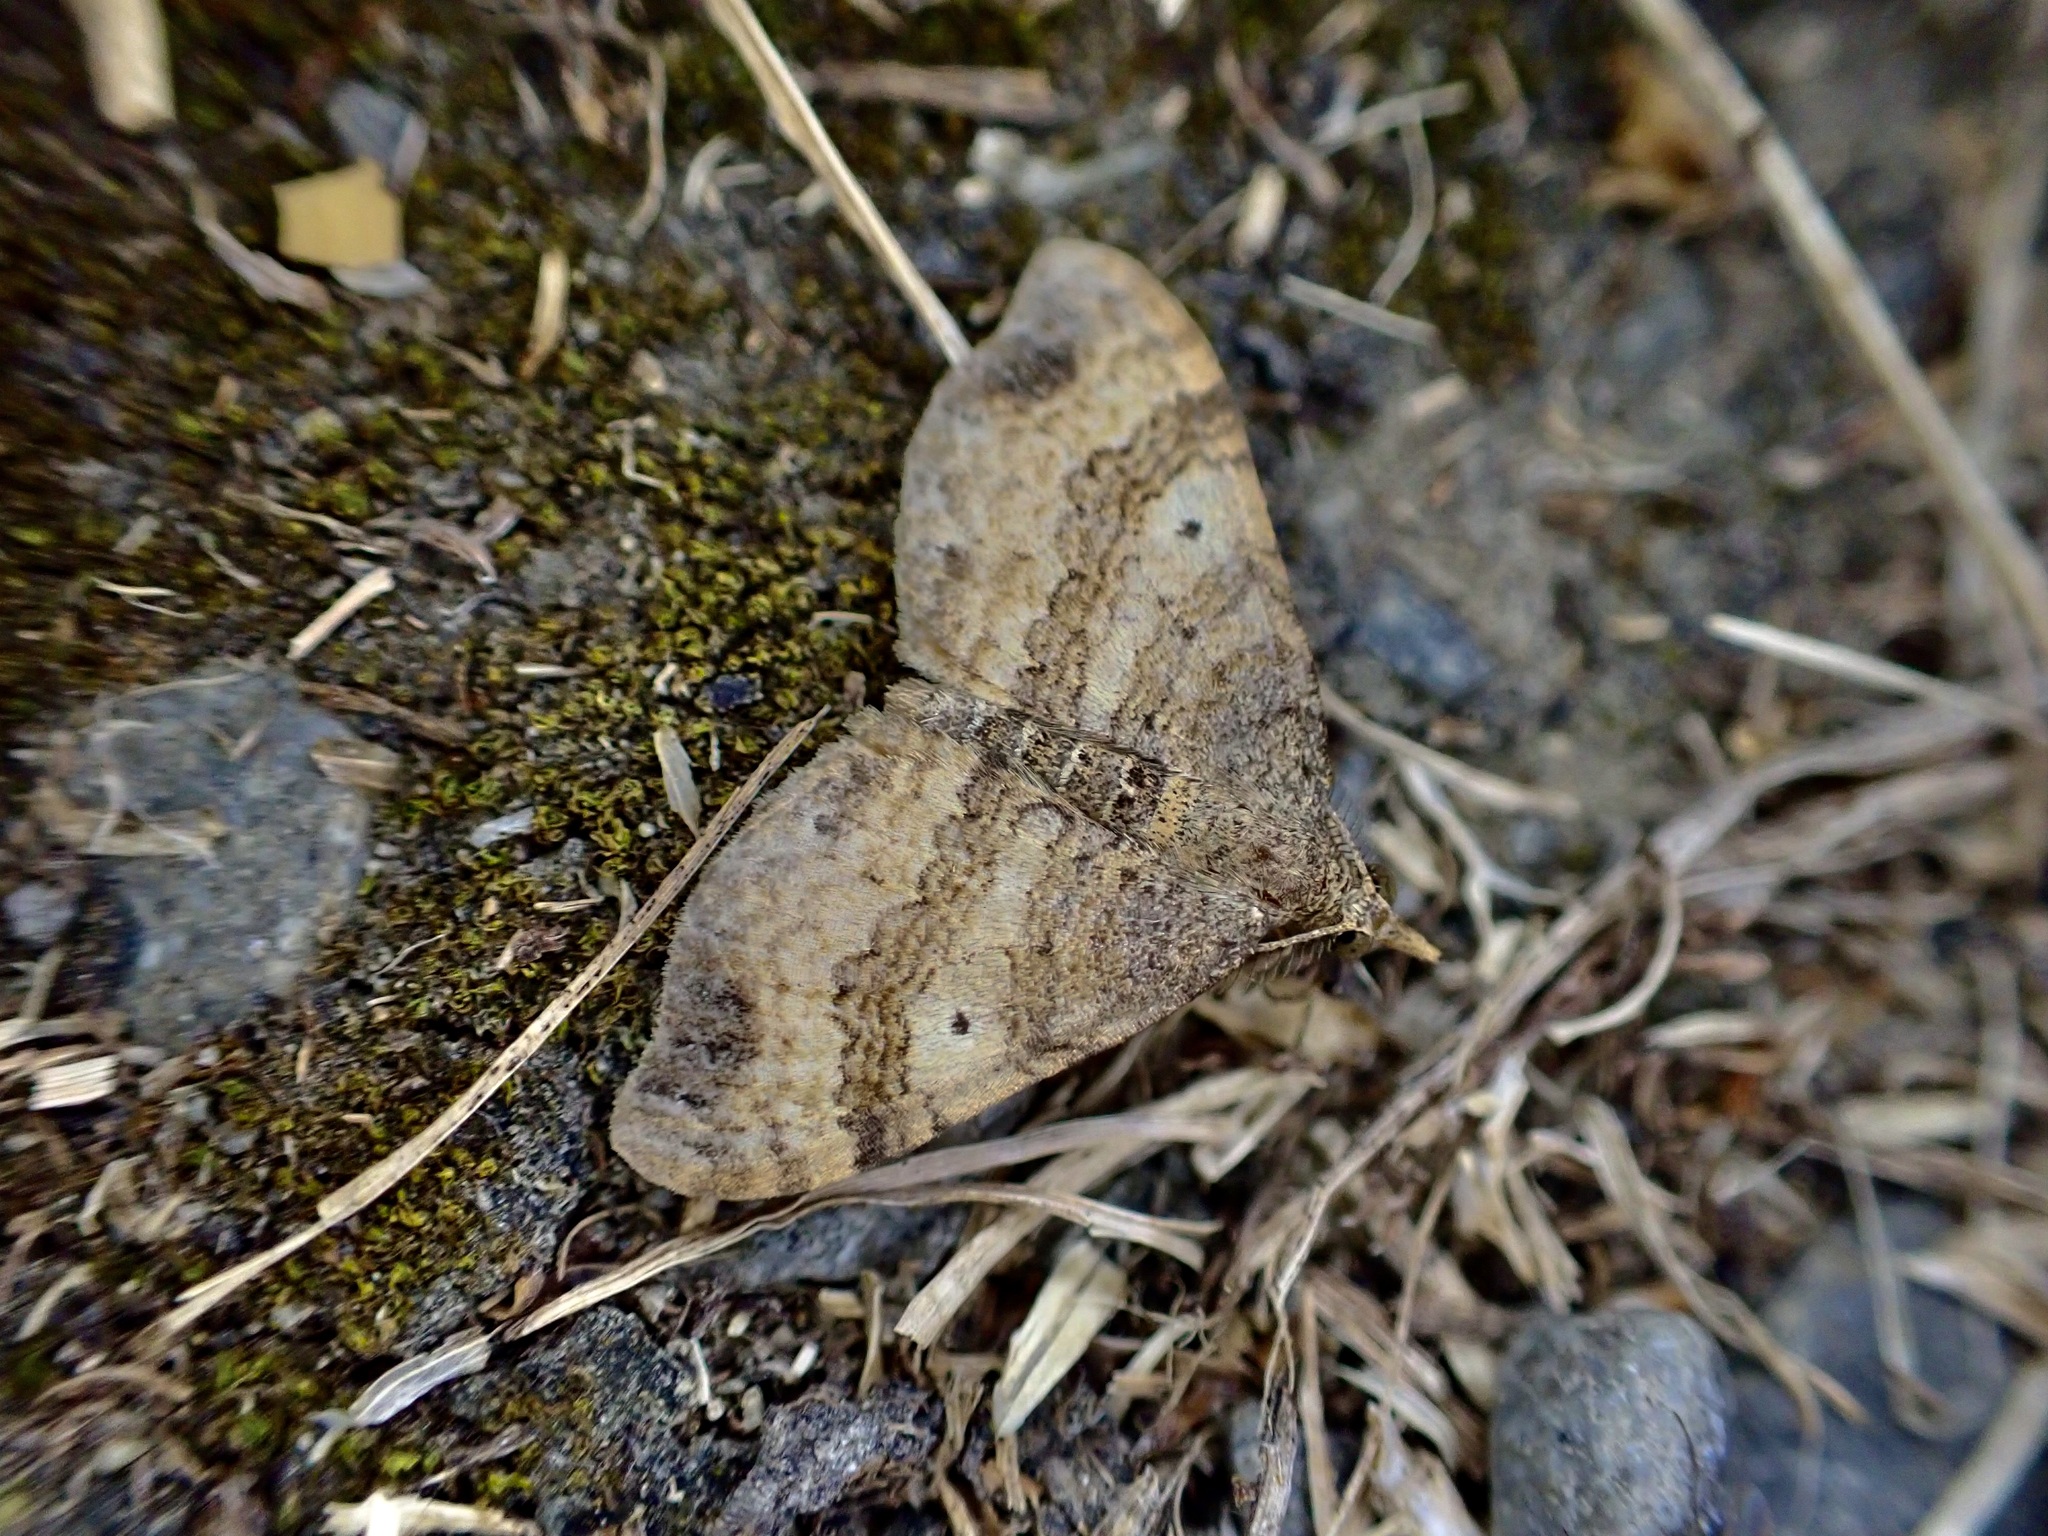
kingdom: Animalia
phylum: Arthropoda
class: Insecta
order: Lepidoptera
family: Geometridae
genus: Homodotis
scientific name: Homodotis megaspilata
